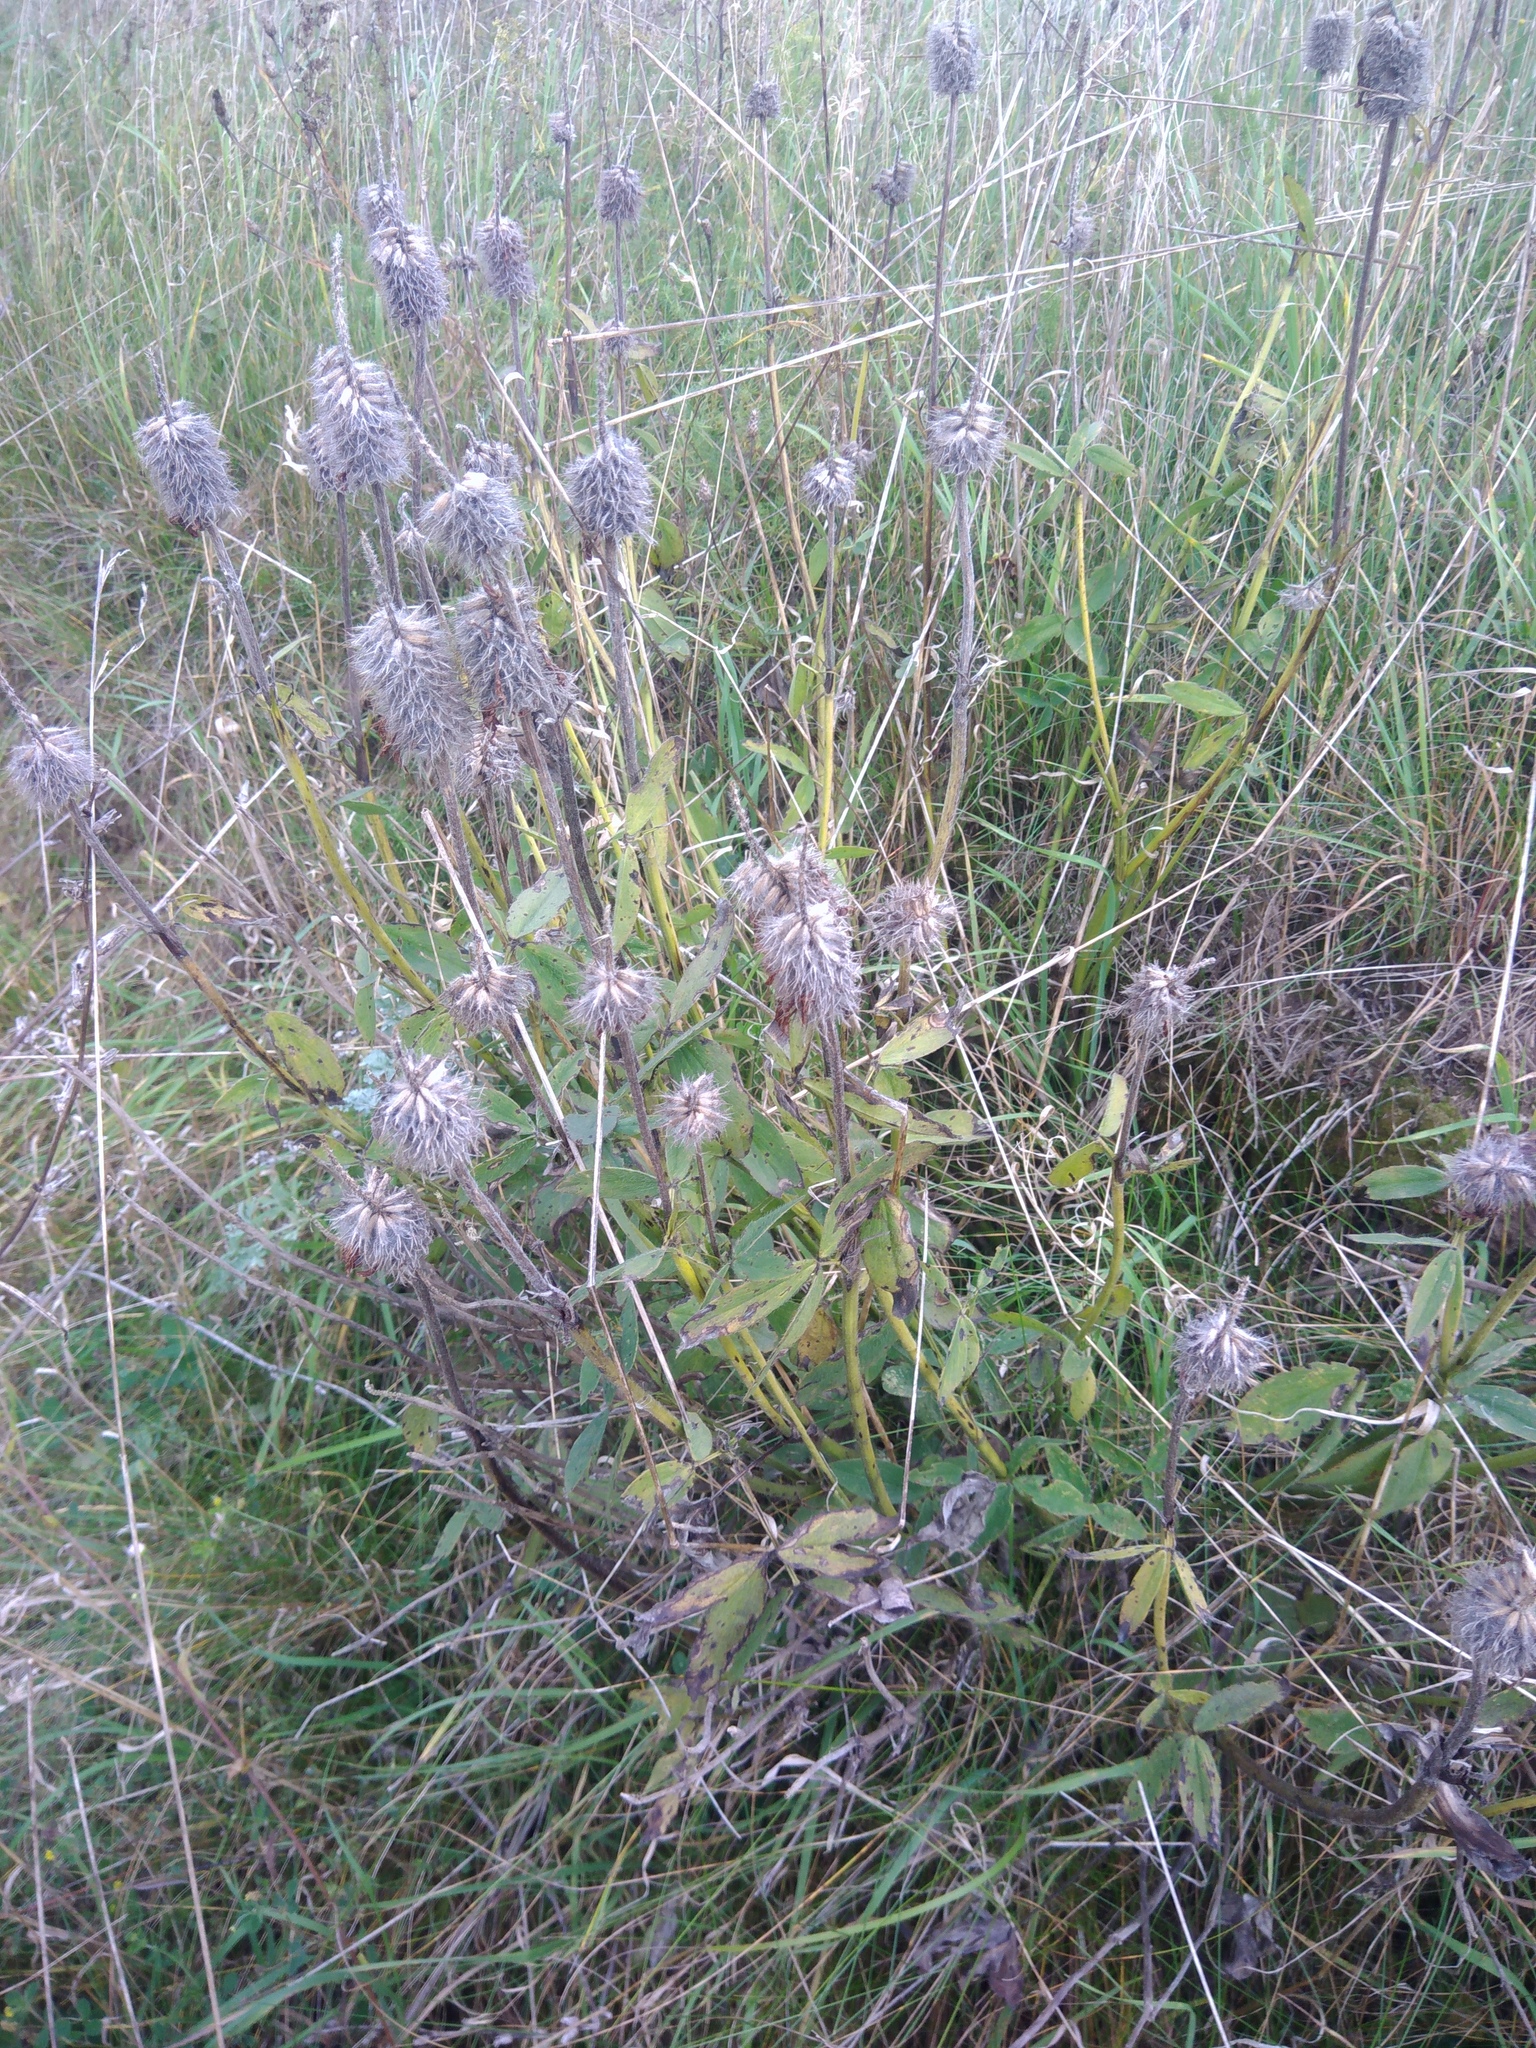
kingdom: Plantae
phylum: Tracheophyta
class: Magnoliopsida
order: Fabales
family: Fabaceae
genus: Trifolium
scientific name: Trifolium rubens
